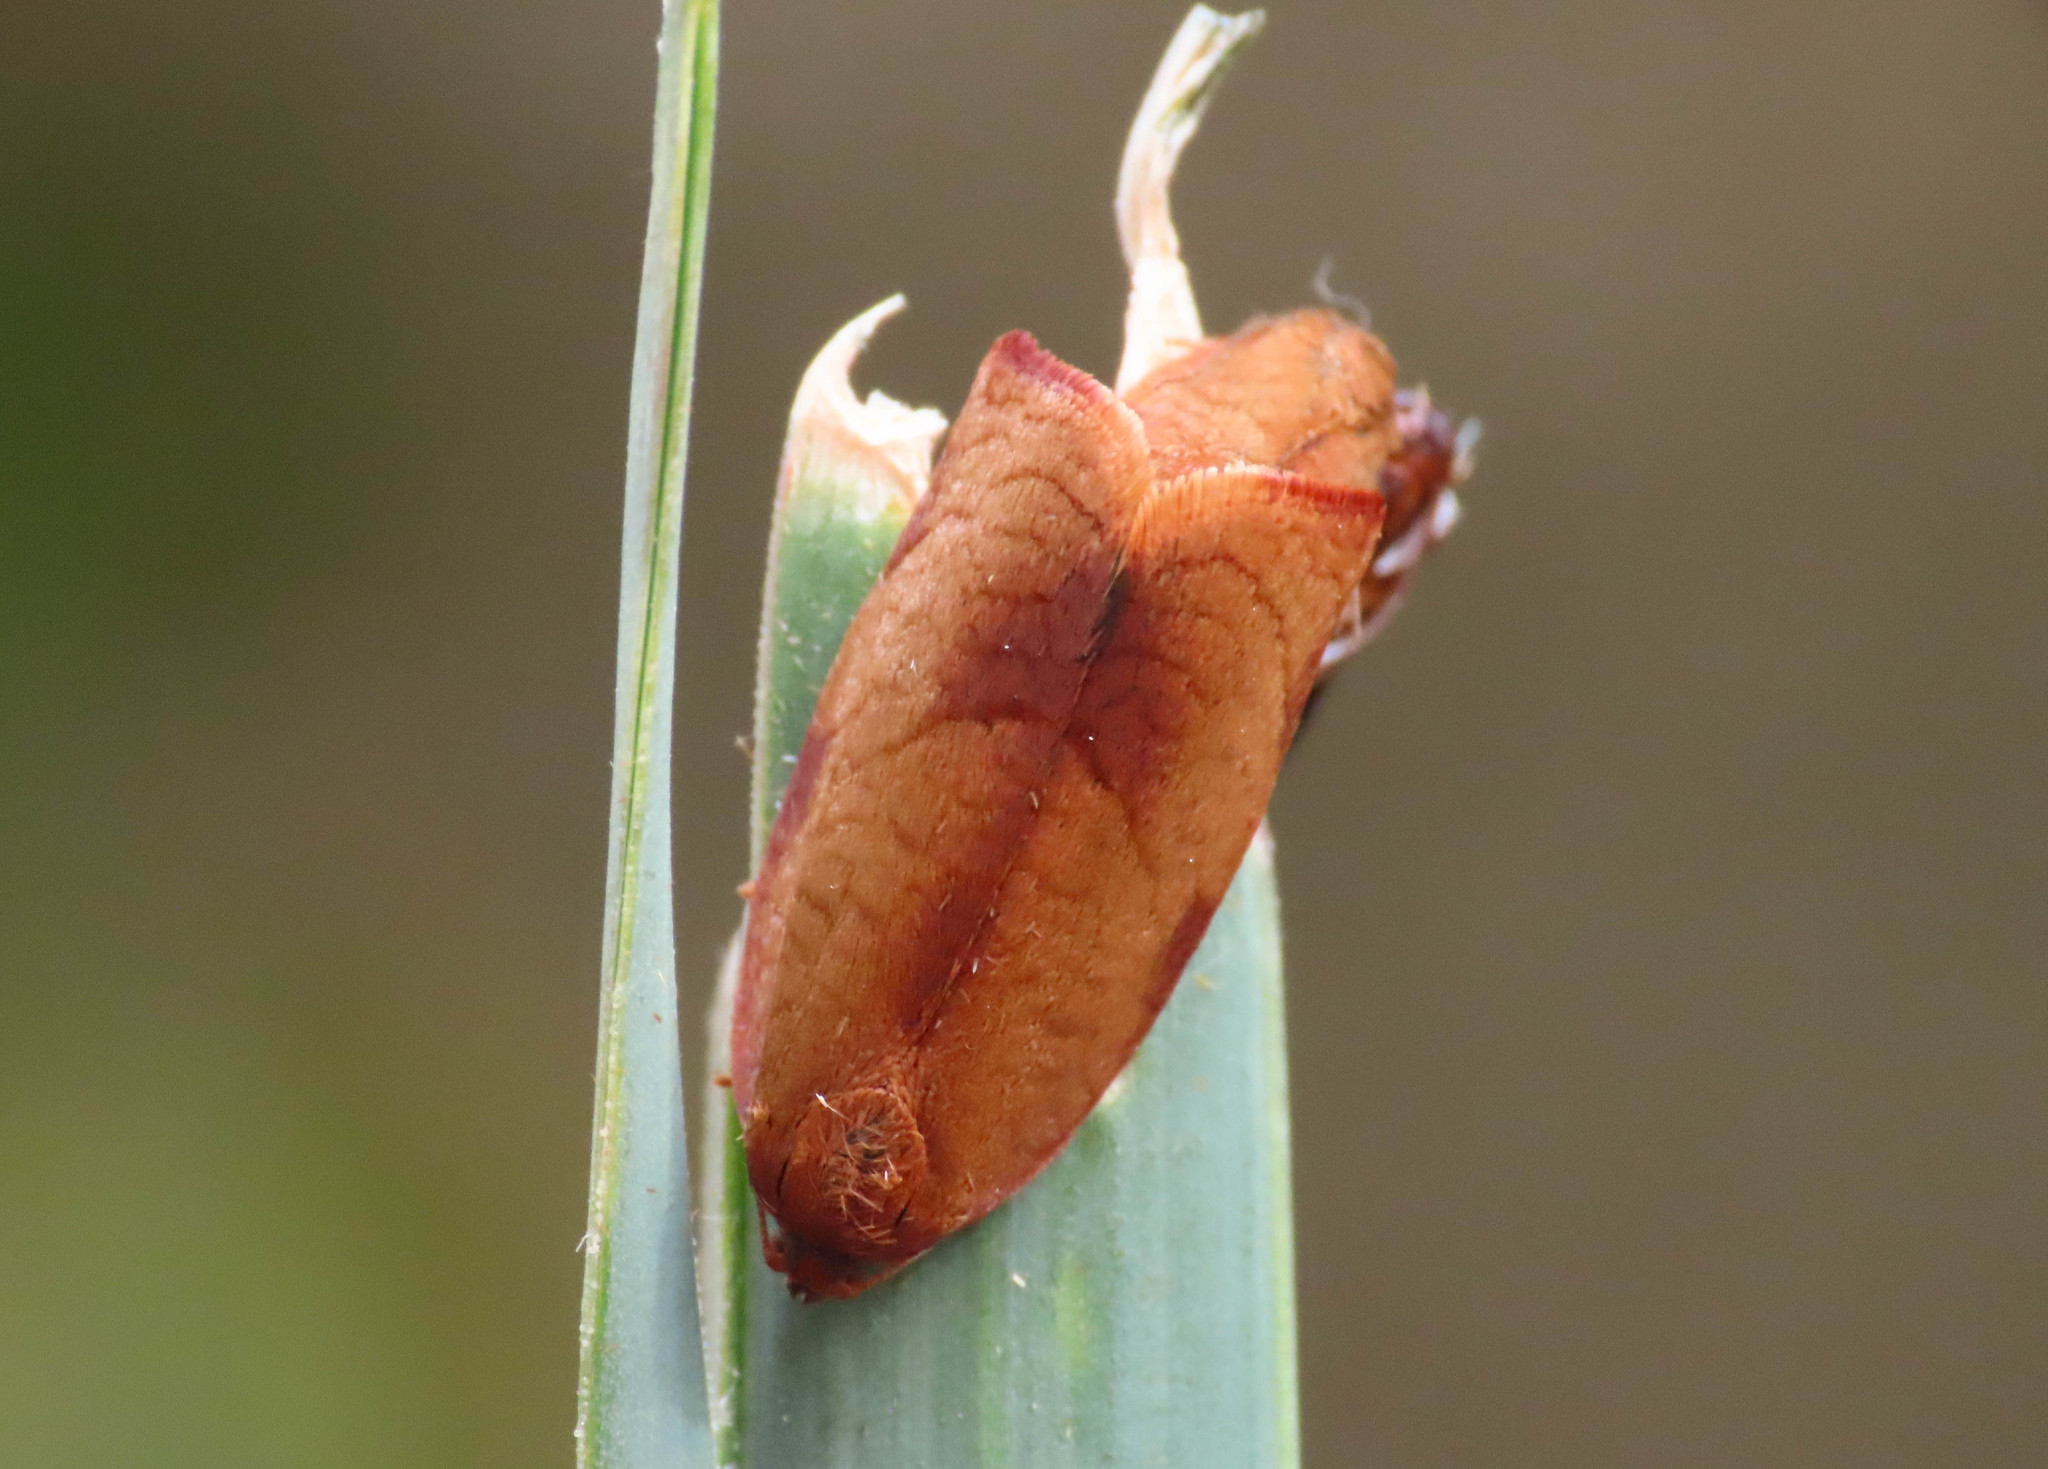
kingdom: Animalia
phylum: Arthropoda
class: Insecta
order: Lepidoptera
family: Tortricidae
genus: Cacoecimorpha
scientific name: Cacoecimorpha pronubana
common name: Carnation tortrix
